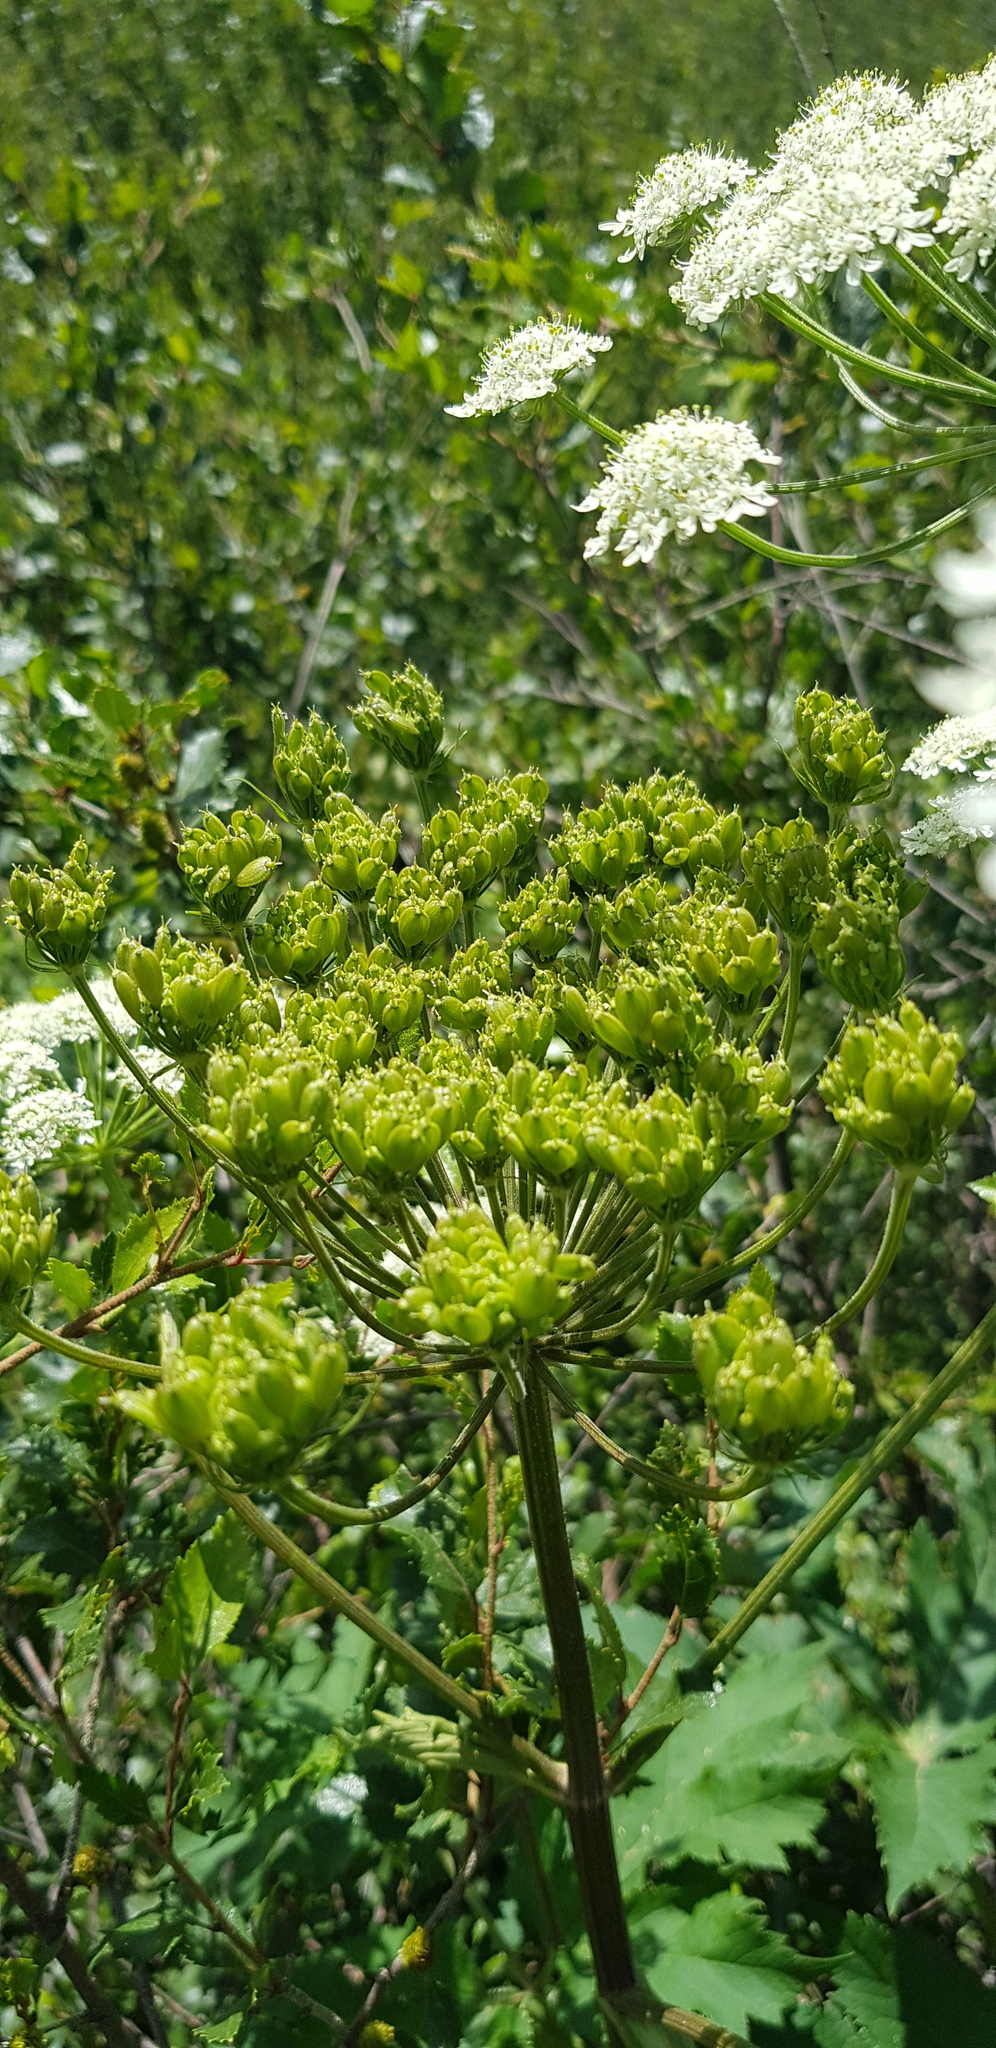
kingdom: Plantae
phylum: Tracheophyta
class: Magnoliopsida
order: Apiales
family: Apiaceae
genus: Heracleum
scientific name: Heracleum dissectum
